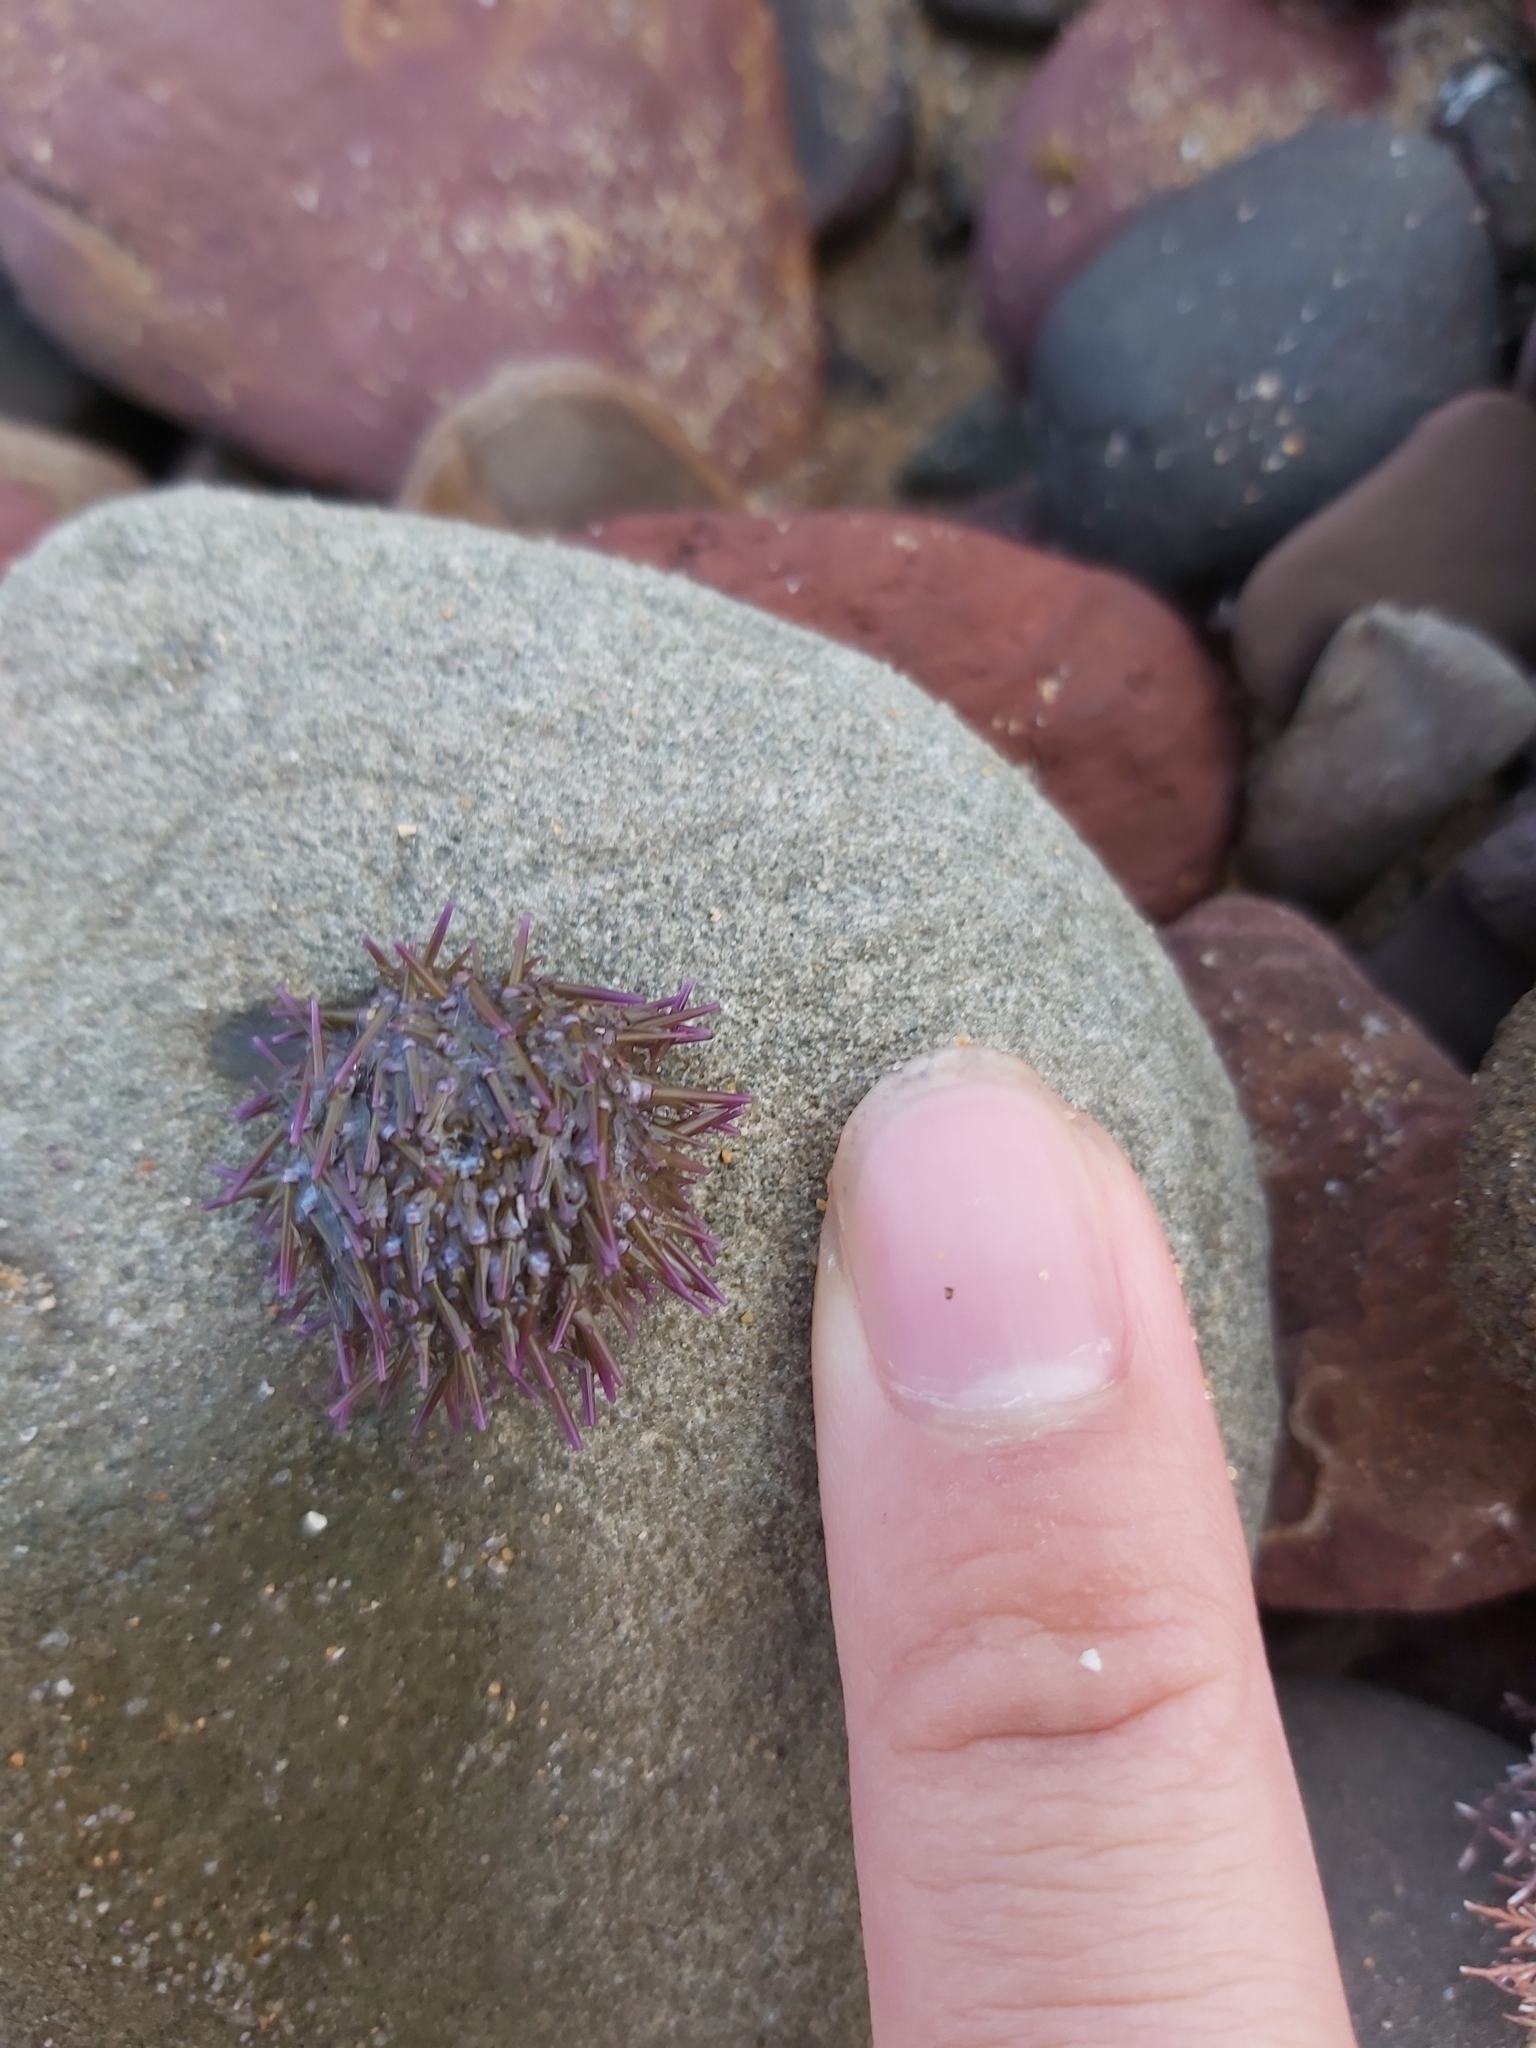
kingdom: Animalia
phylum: Echinodermata
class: Echinoidea
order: Camarodonta
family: Echinometridae
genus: Heliocidaris
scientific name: Heliocidaris erythrogramma
